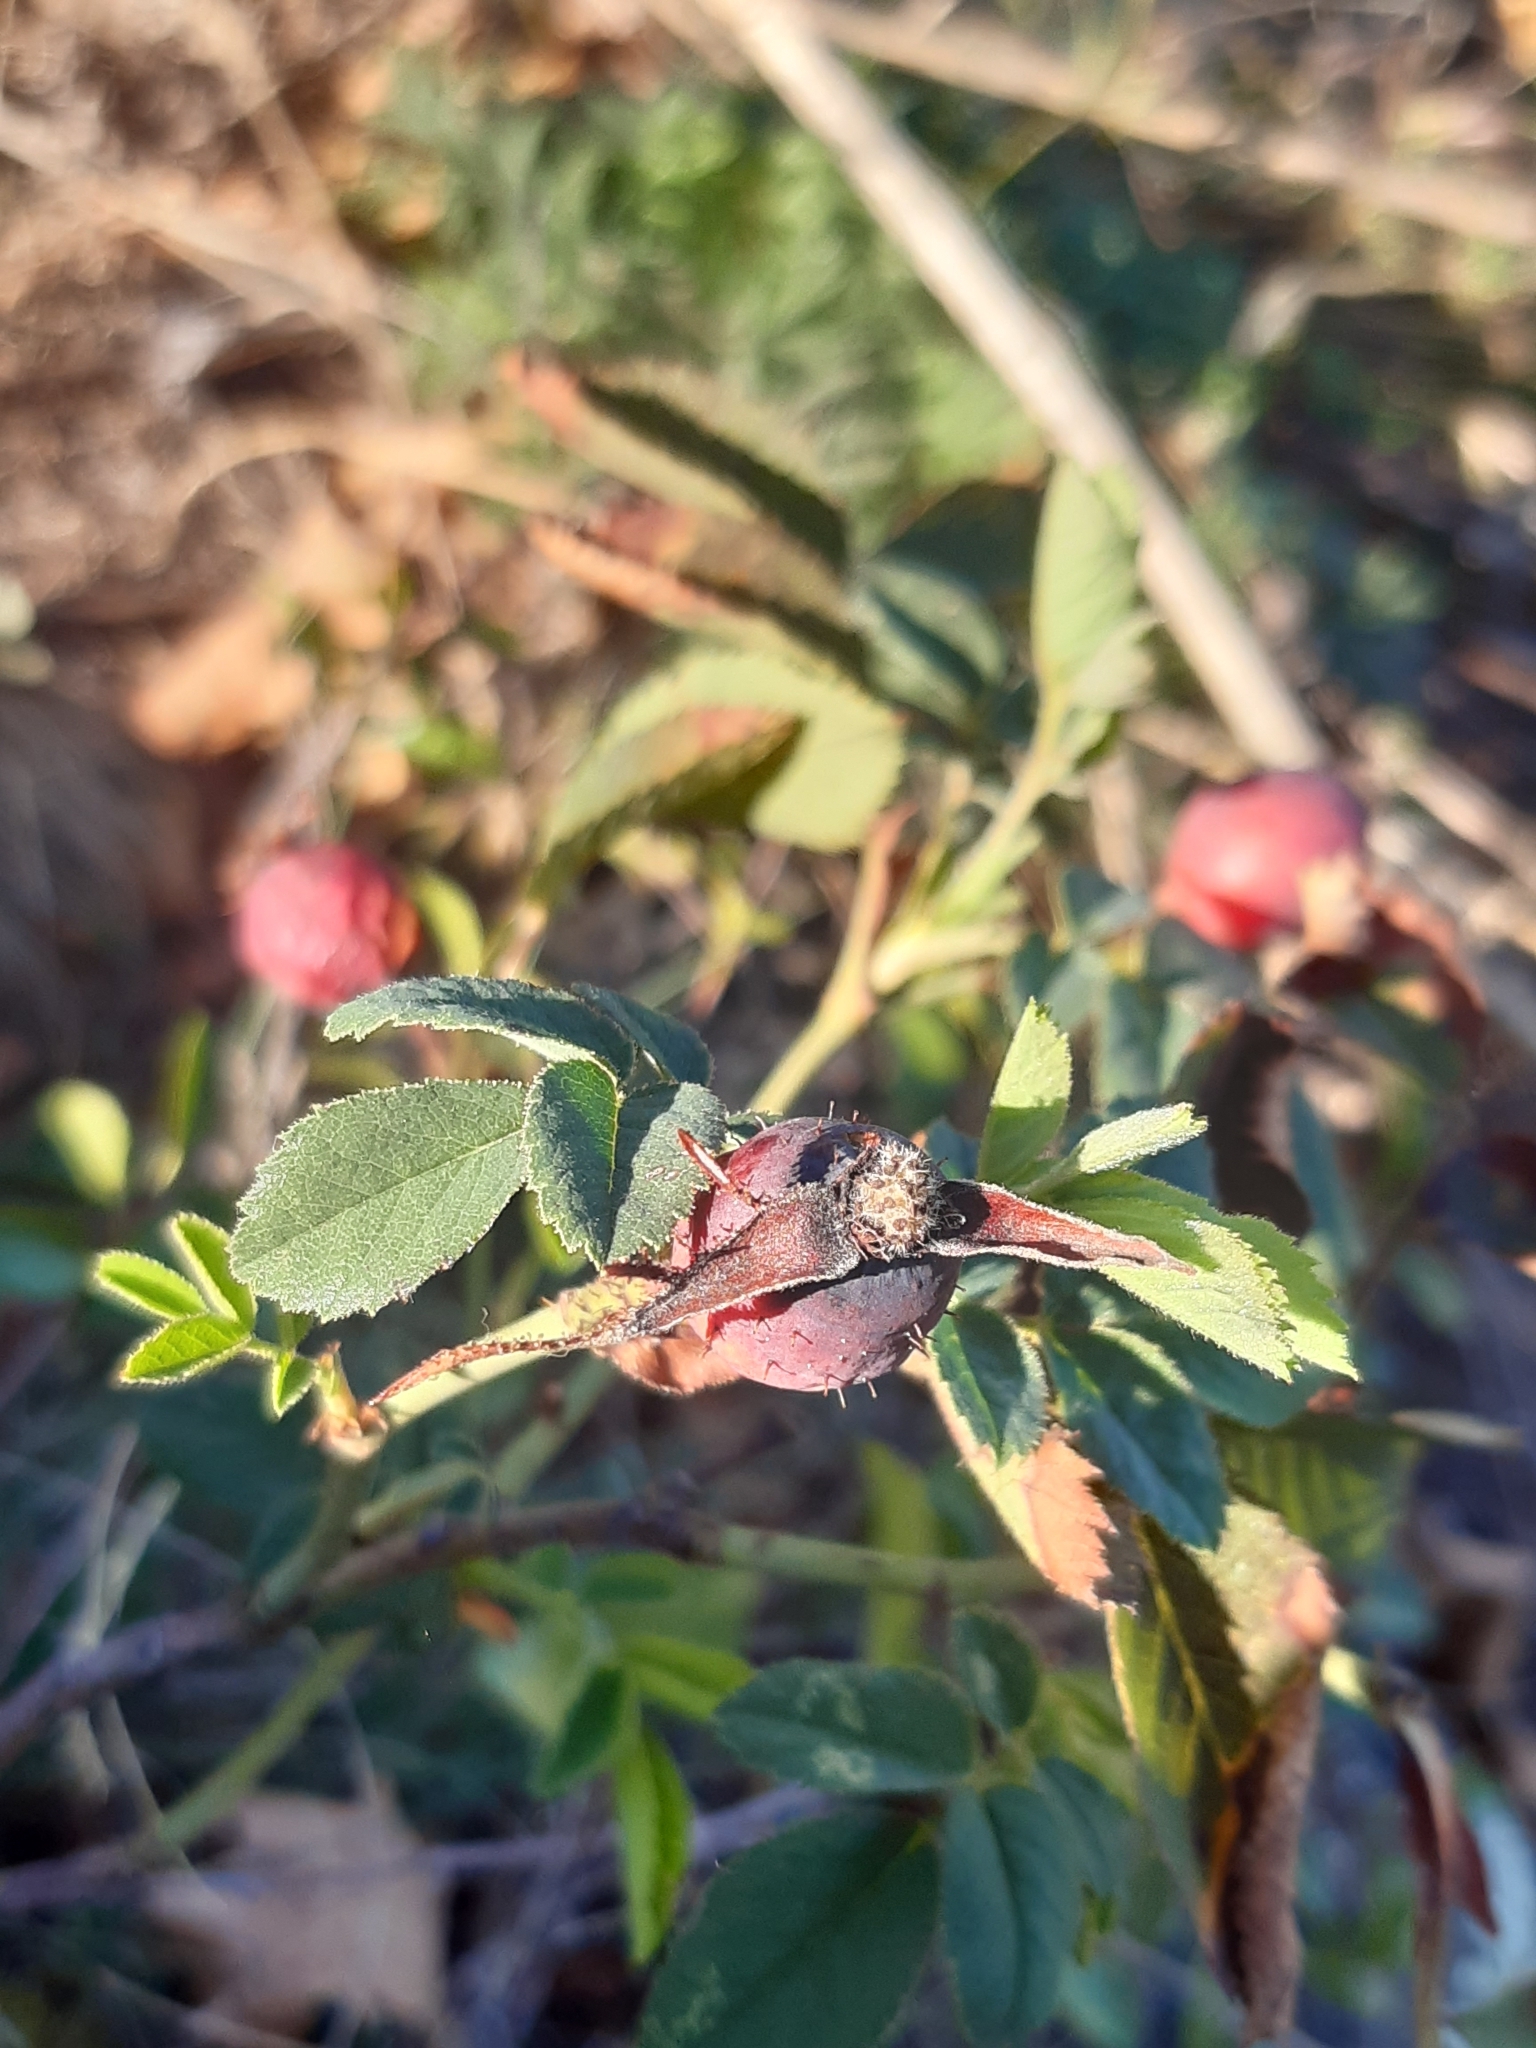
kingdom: Plantae
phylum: Tracheophyta
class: Magnoliopsida
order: Rosales
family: Rosaceae
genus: Rosa
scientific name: Rosa marginata
